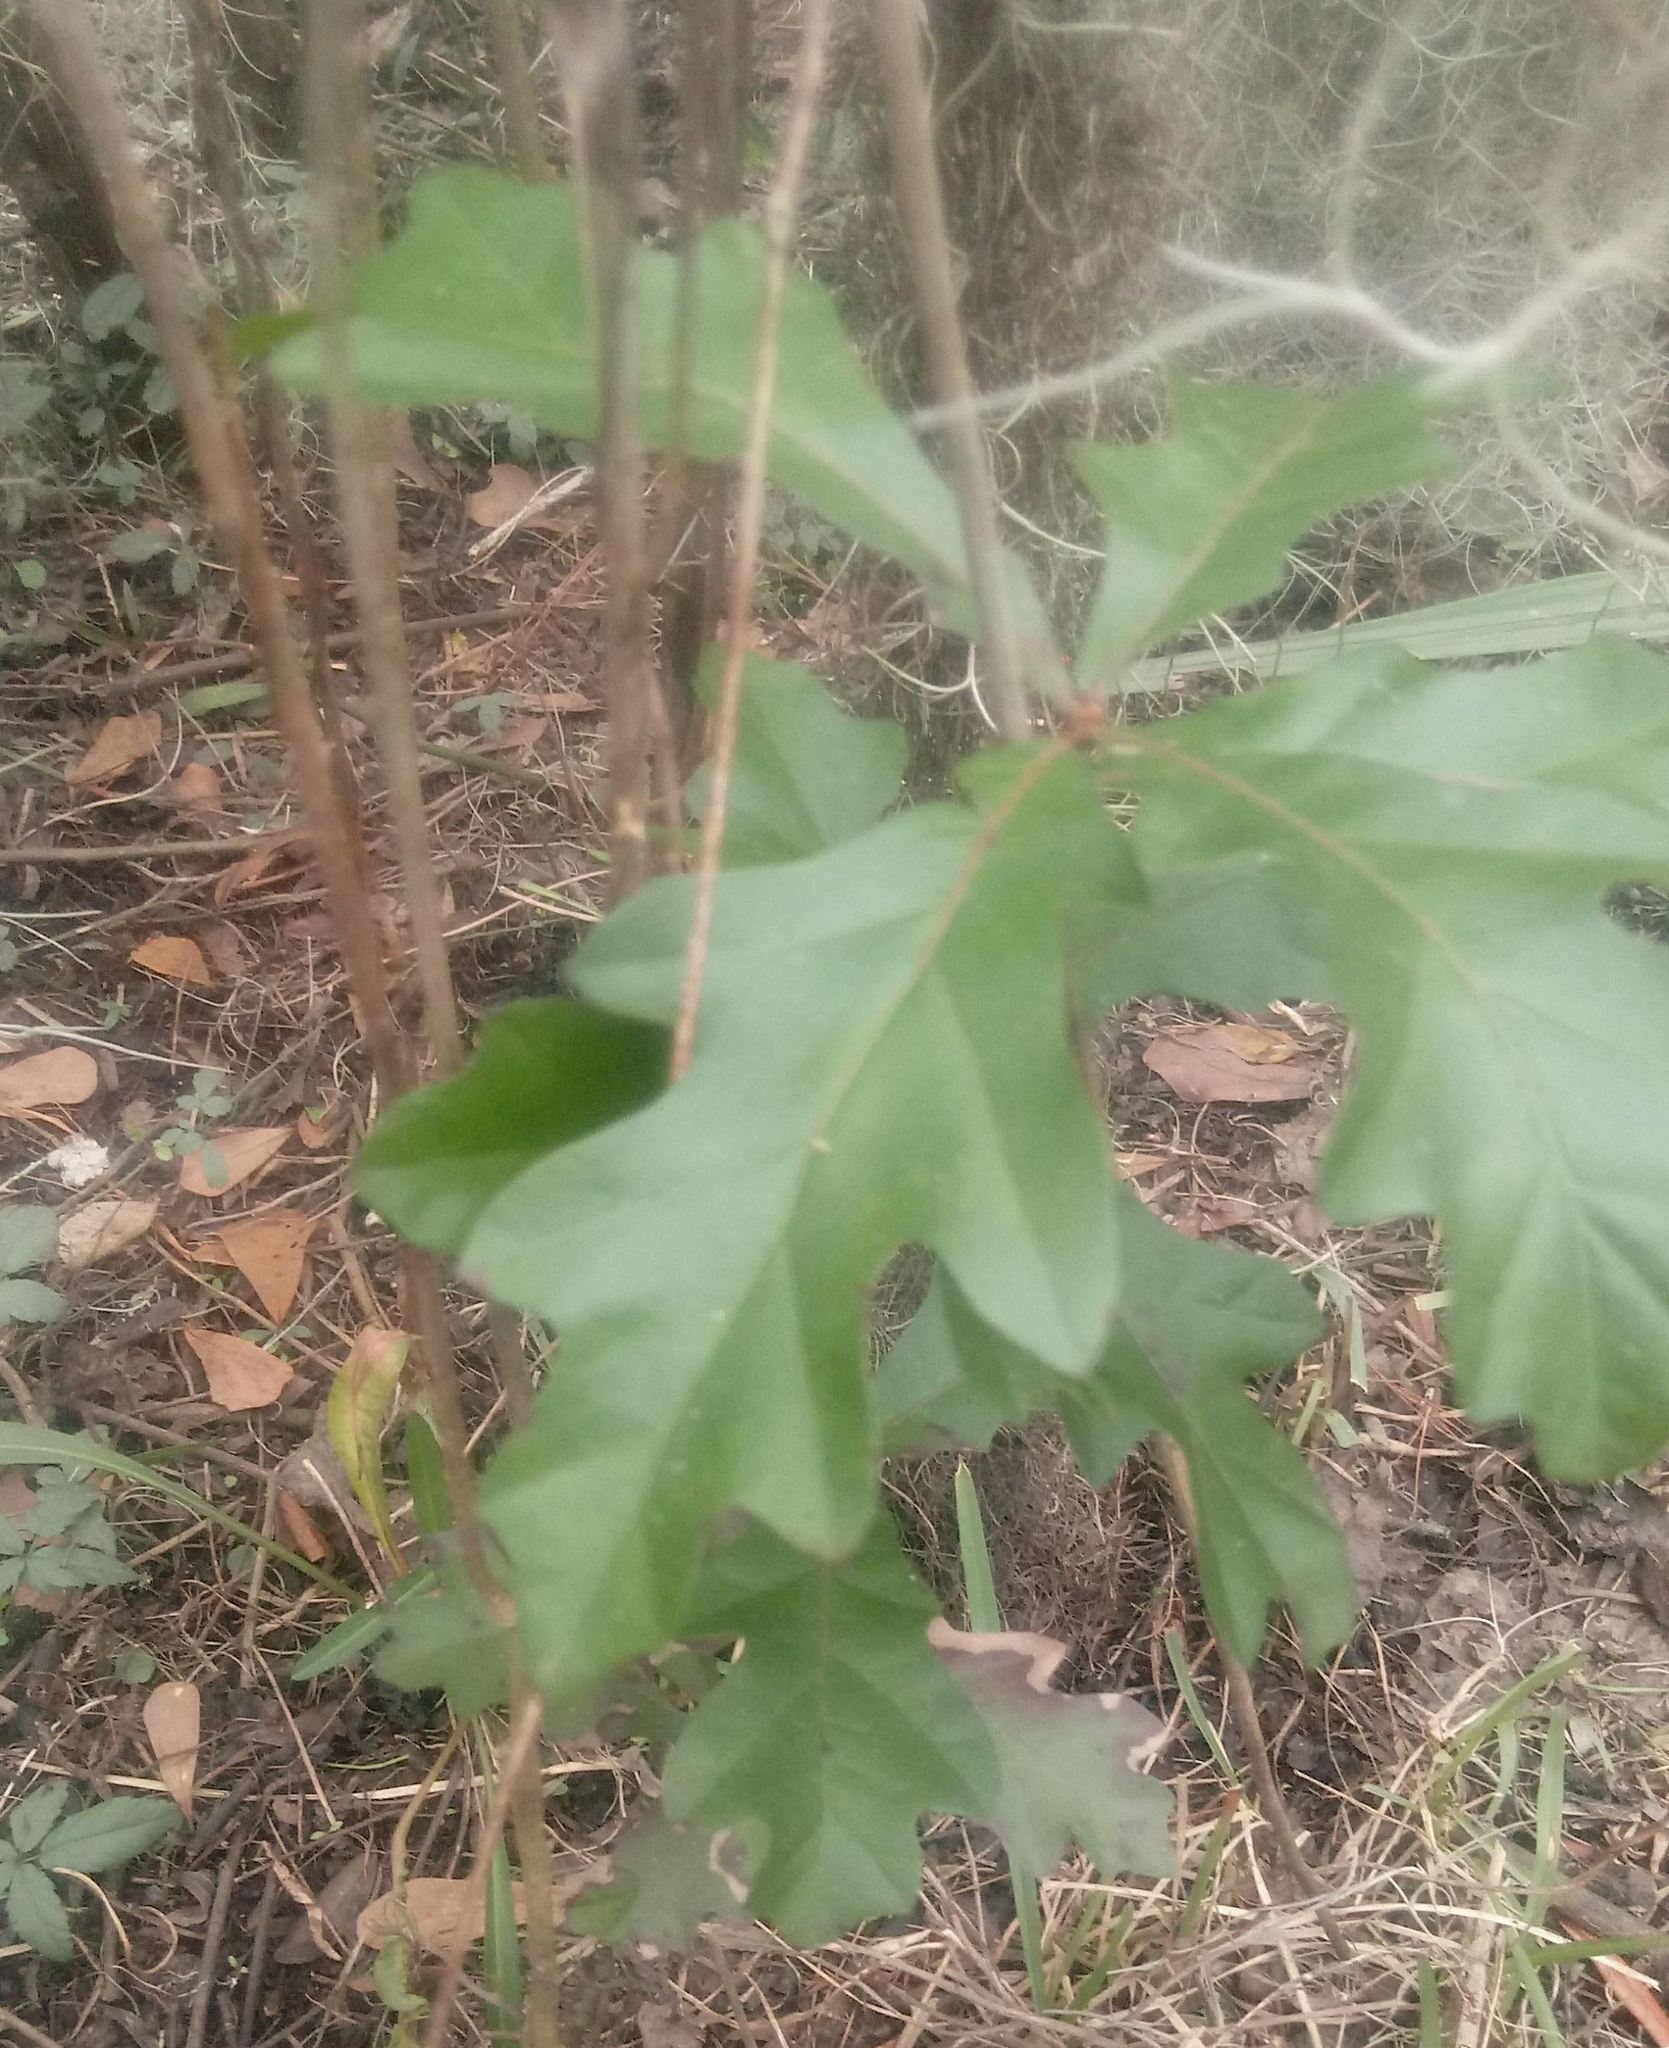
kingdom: Plantae
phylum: Tracheophyta
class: Magnoliopsida
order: Fagales
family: Fagaceae
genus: Quercus
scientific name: Quercus nigra
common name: Water oak
